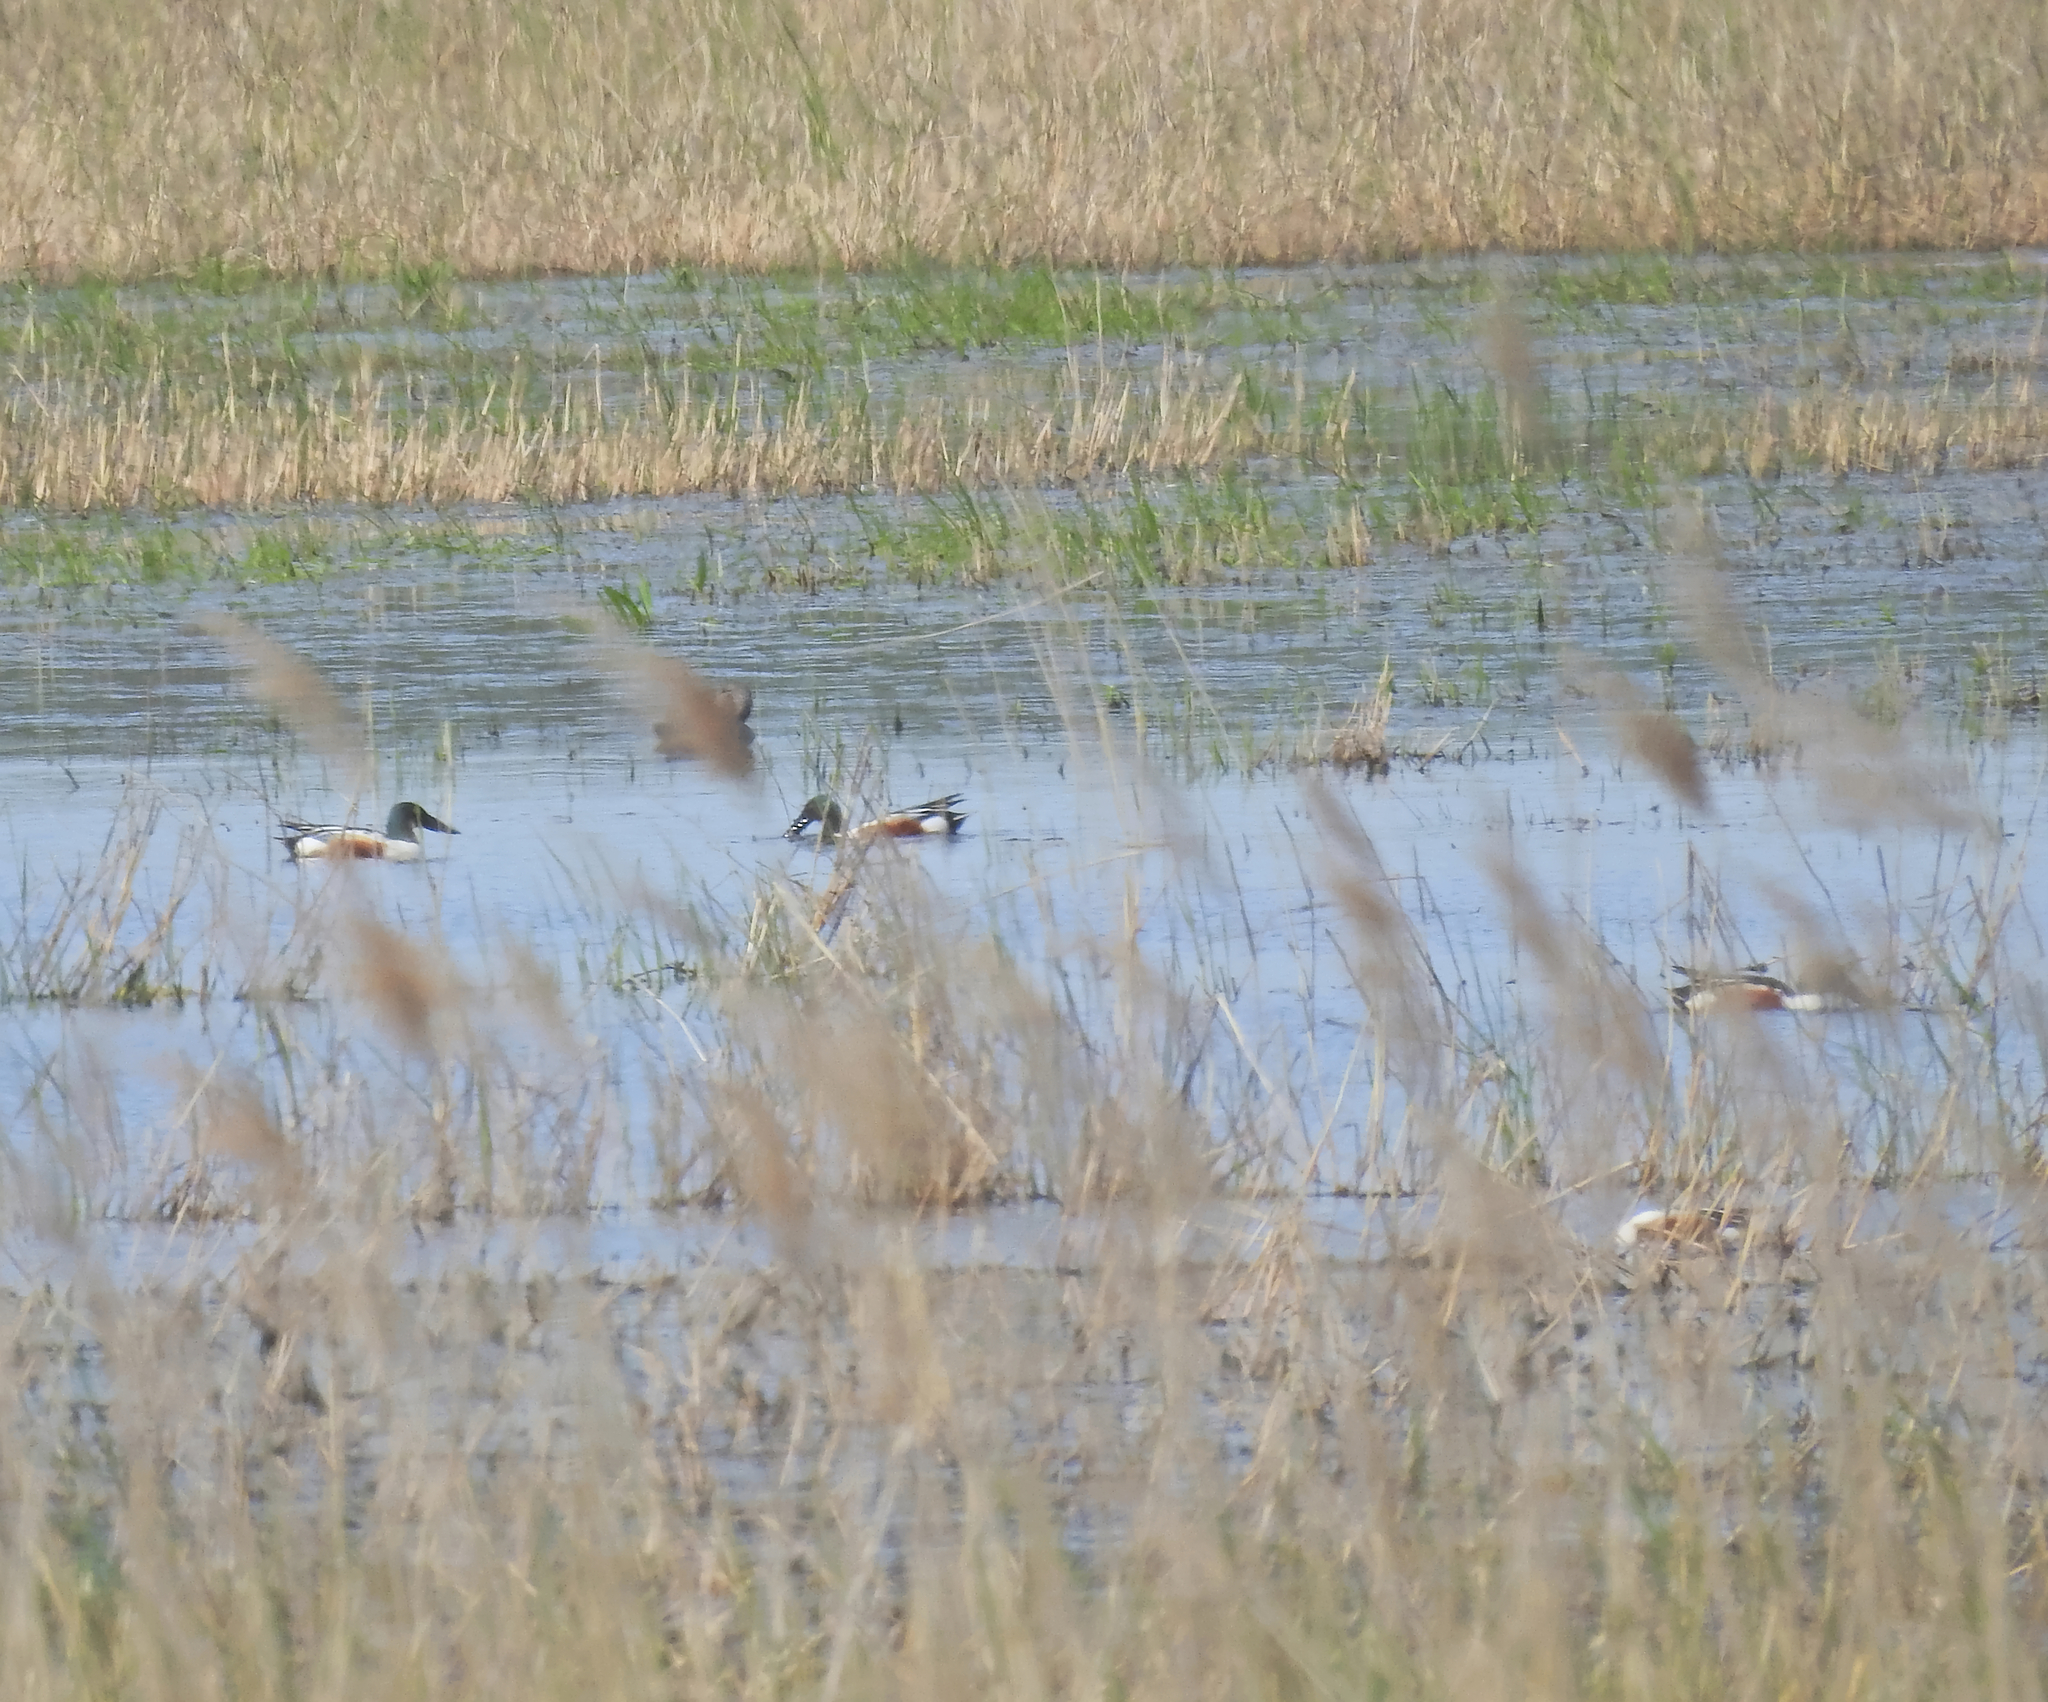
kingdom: Animalia
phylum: Chordata
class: Aves
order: Anseriformes
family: Anatidae
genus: Spatula
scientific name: Spatula clypeata
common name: Northern shoveler
